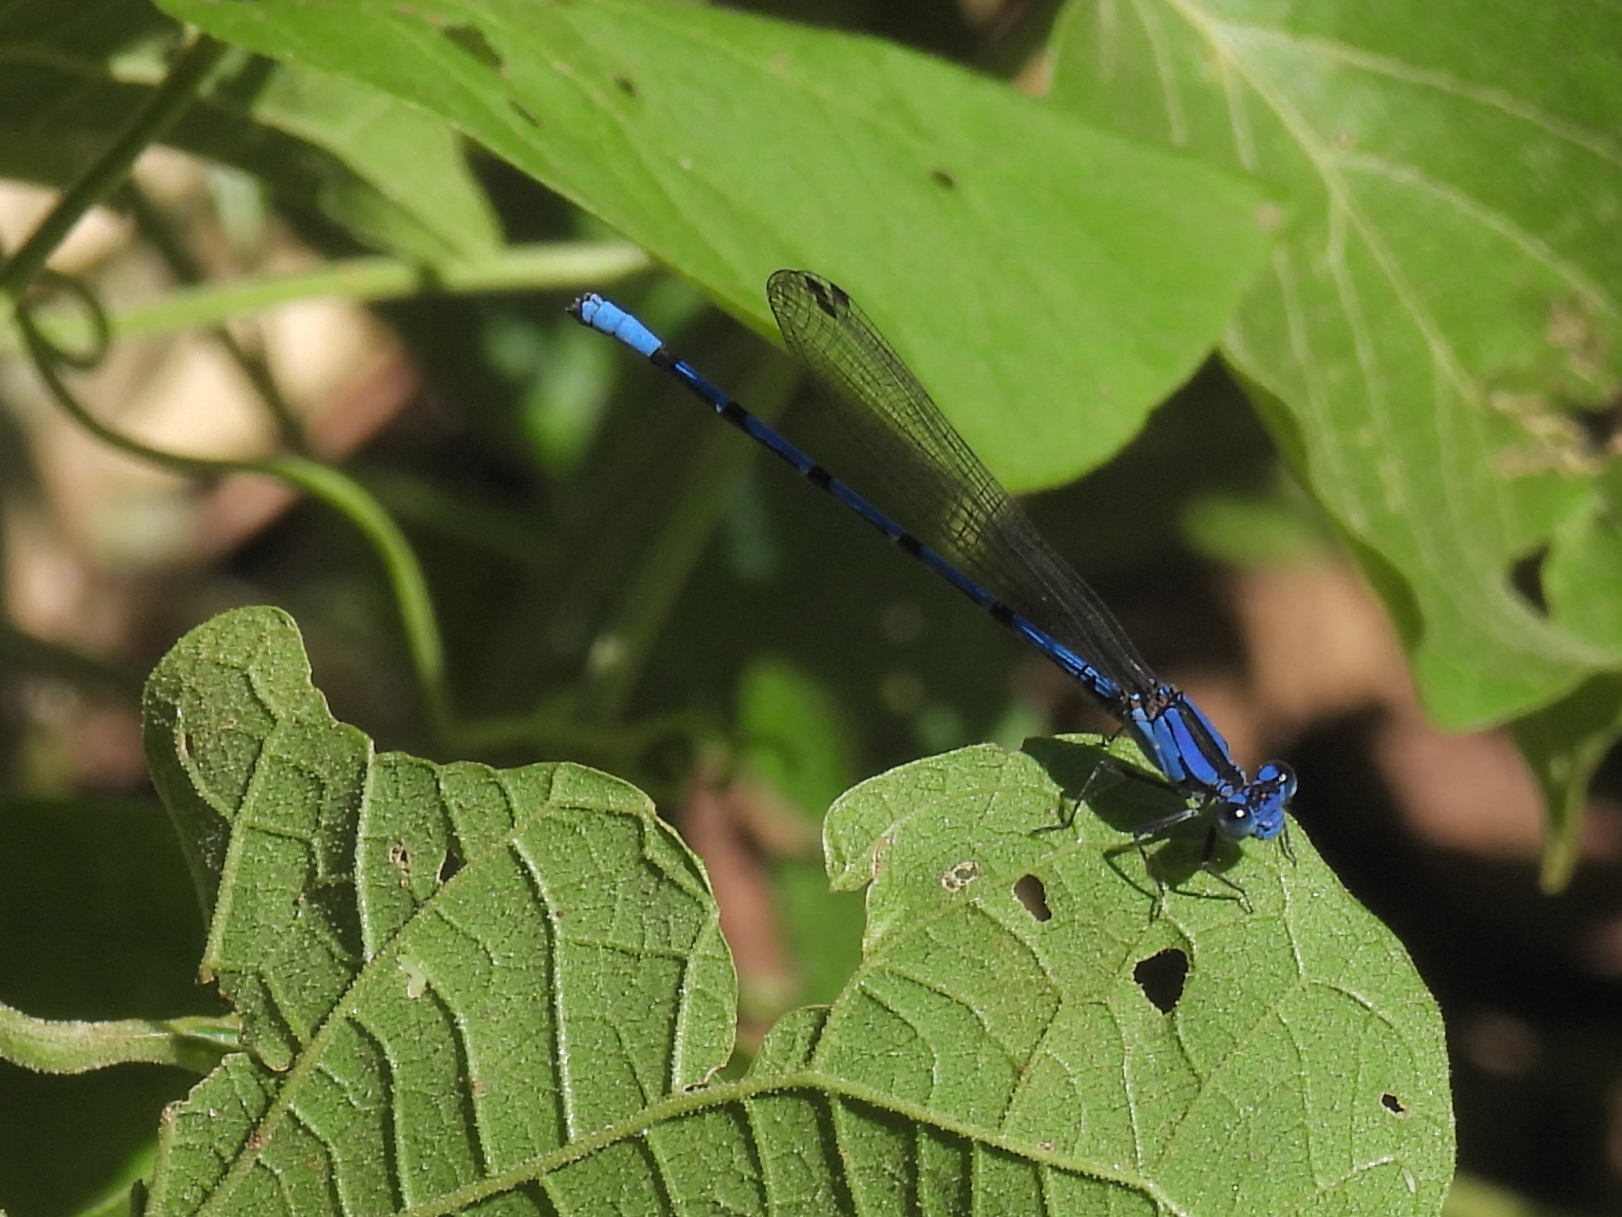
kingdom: Animalia
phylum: Arthropoda
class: Insecta
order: Odonata
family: Coenagrionidae
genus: Argia
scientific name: Argia elongata
